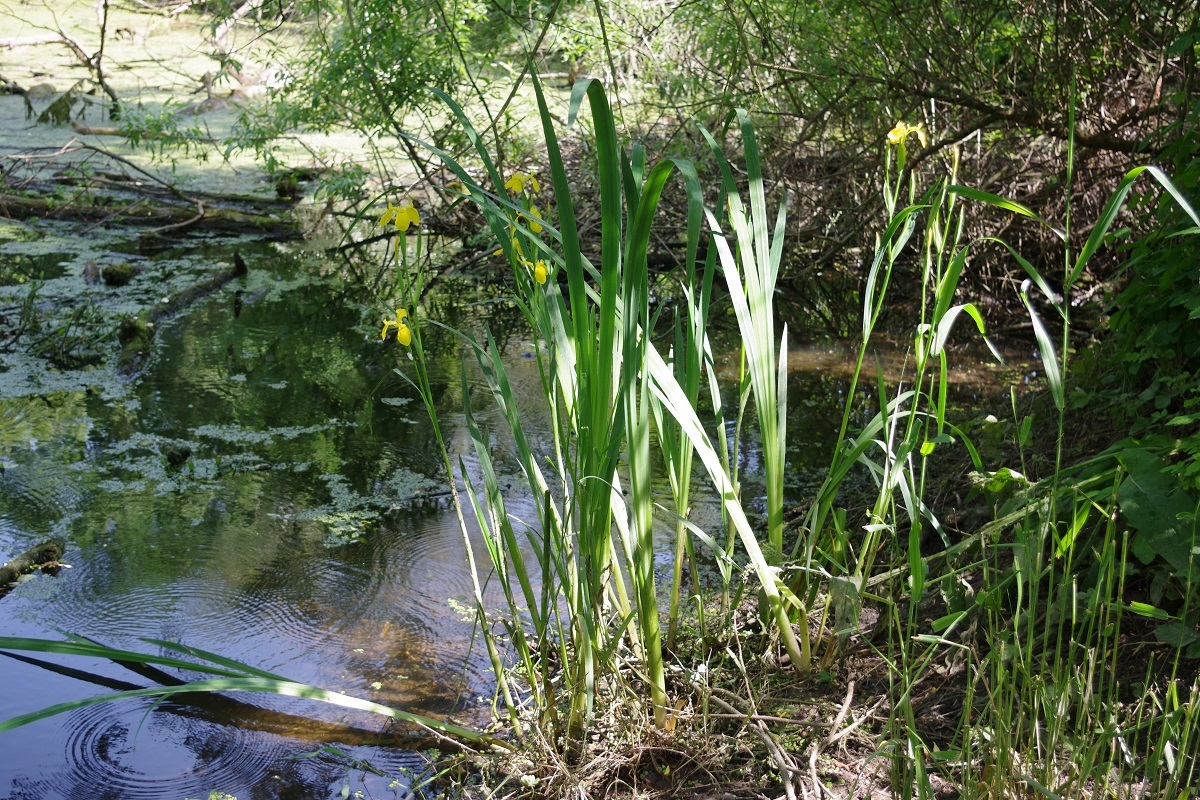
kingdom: Plantae
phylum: Tracheophyta
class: Liliopsida
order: Asparagales
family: Iridaceae
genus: Iris
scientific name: Iris pseudacorus
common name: Yellow flag
